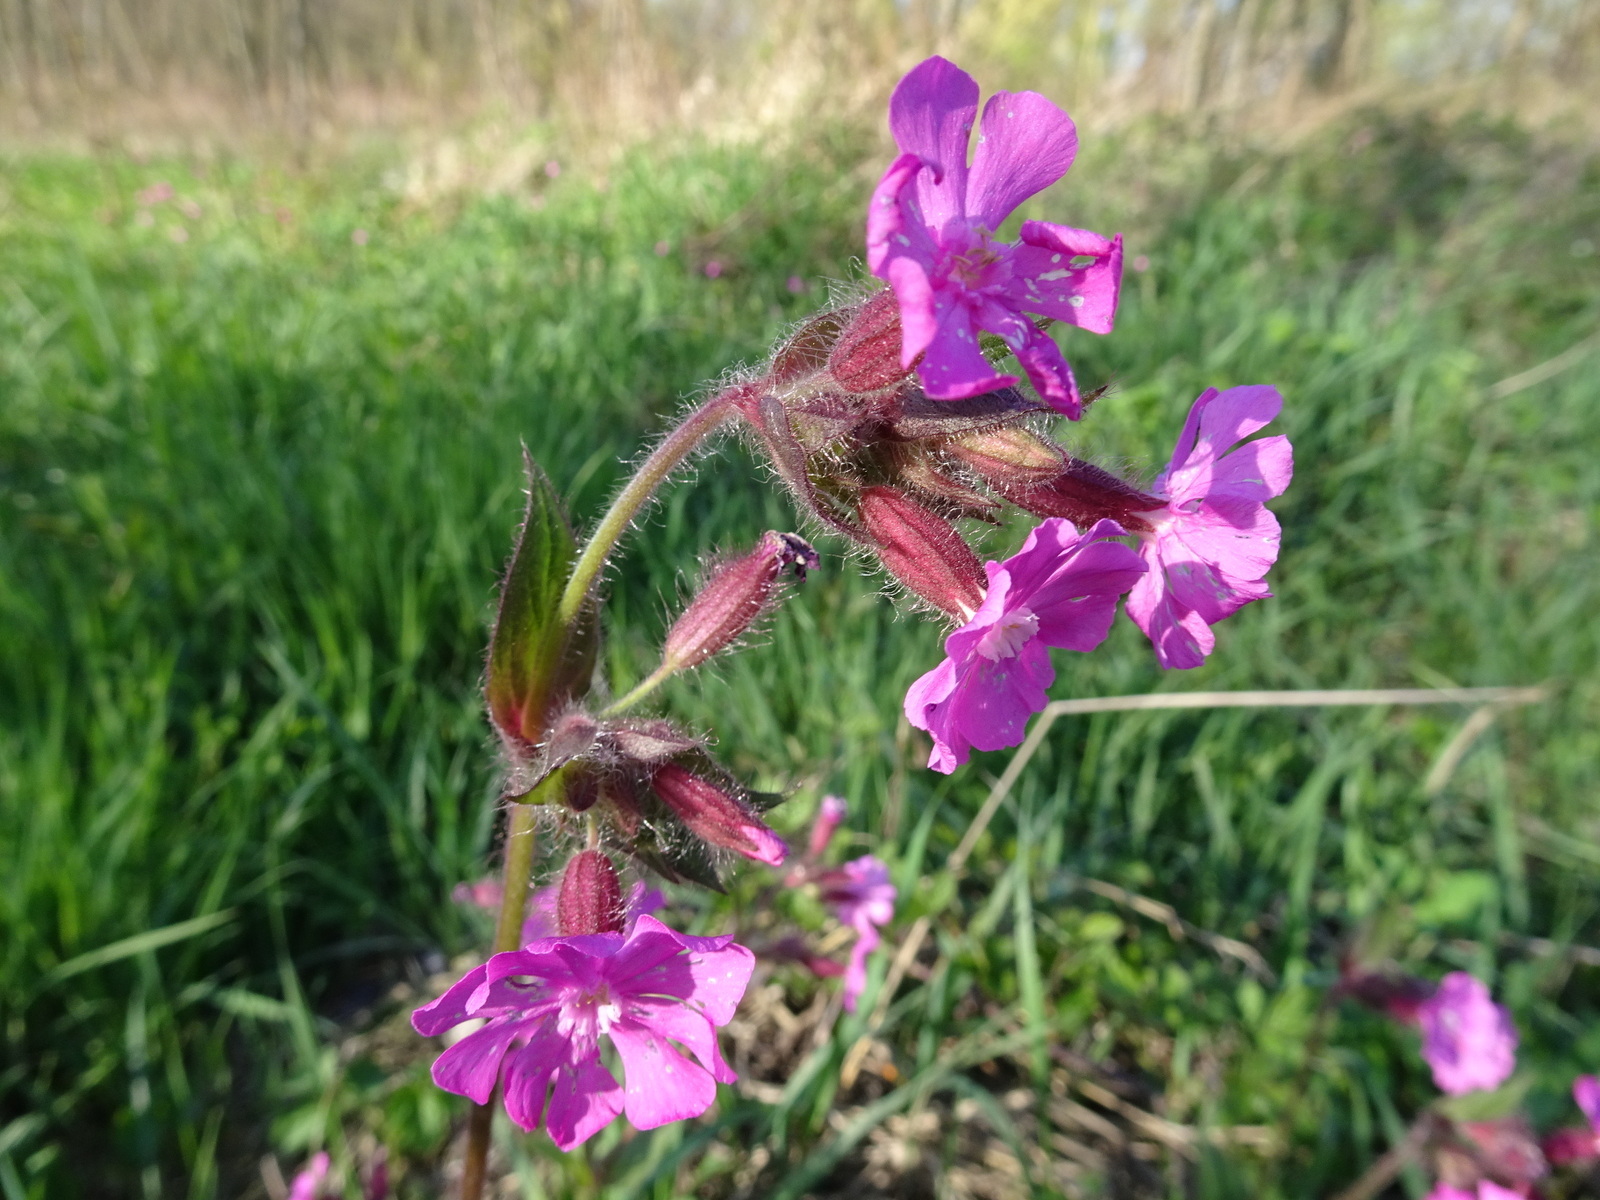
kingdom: Plantae
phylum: Tracheophyta
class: Magnoliopsida
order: Caryophyllales
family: Caryophyllaceae
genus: Silene
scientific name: Silene dioica
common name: Red campion
